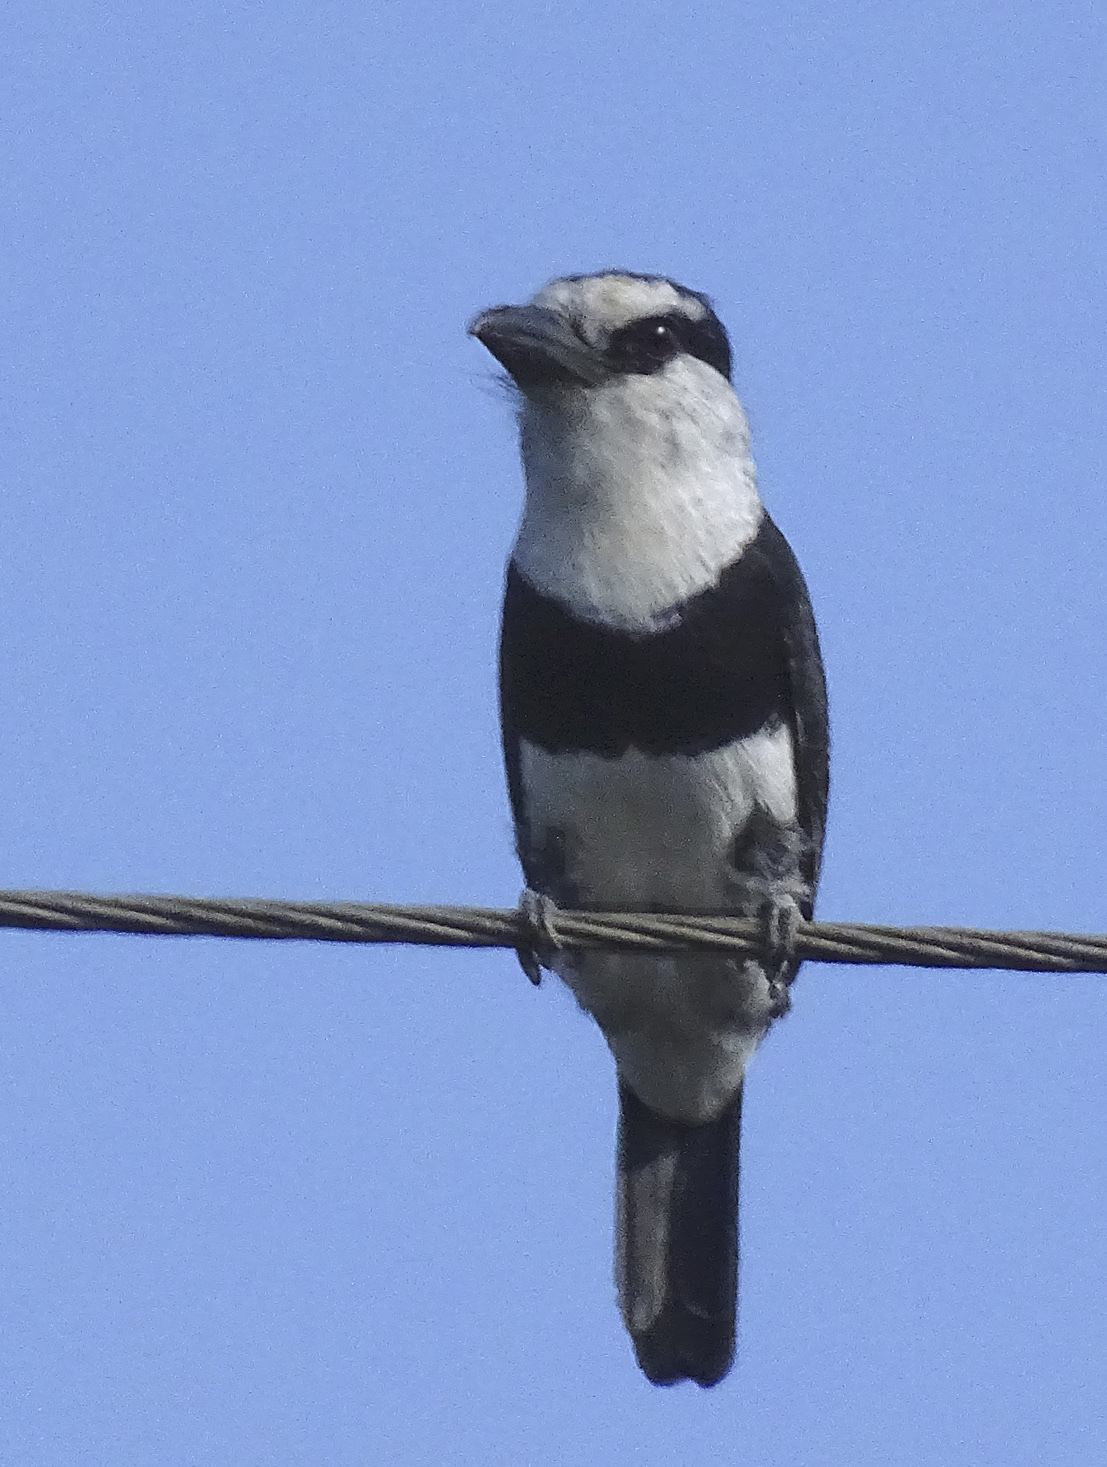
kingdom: Animalia
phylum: Chordata
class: Aves
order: Piciformes
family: Bucconidae
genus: Notharchus
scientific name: Notharchus hyperrhynchus
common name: White-necked puffbird
